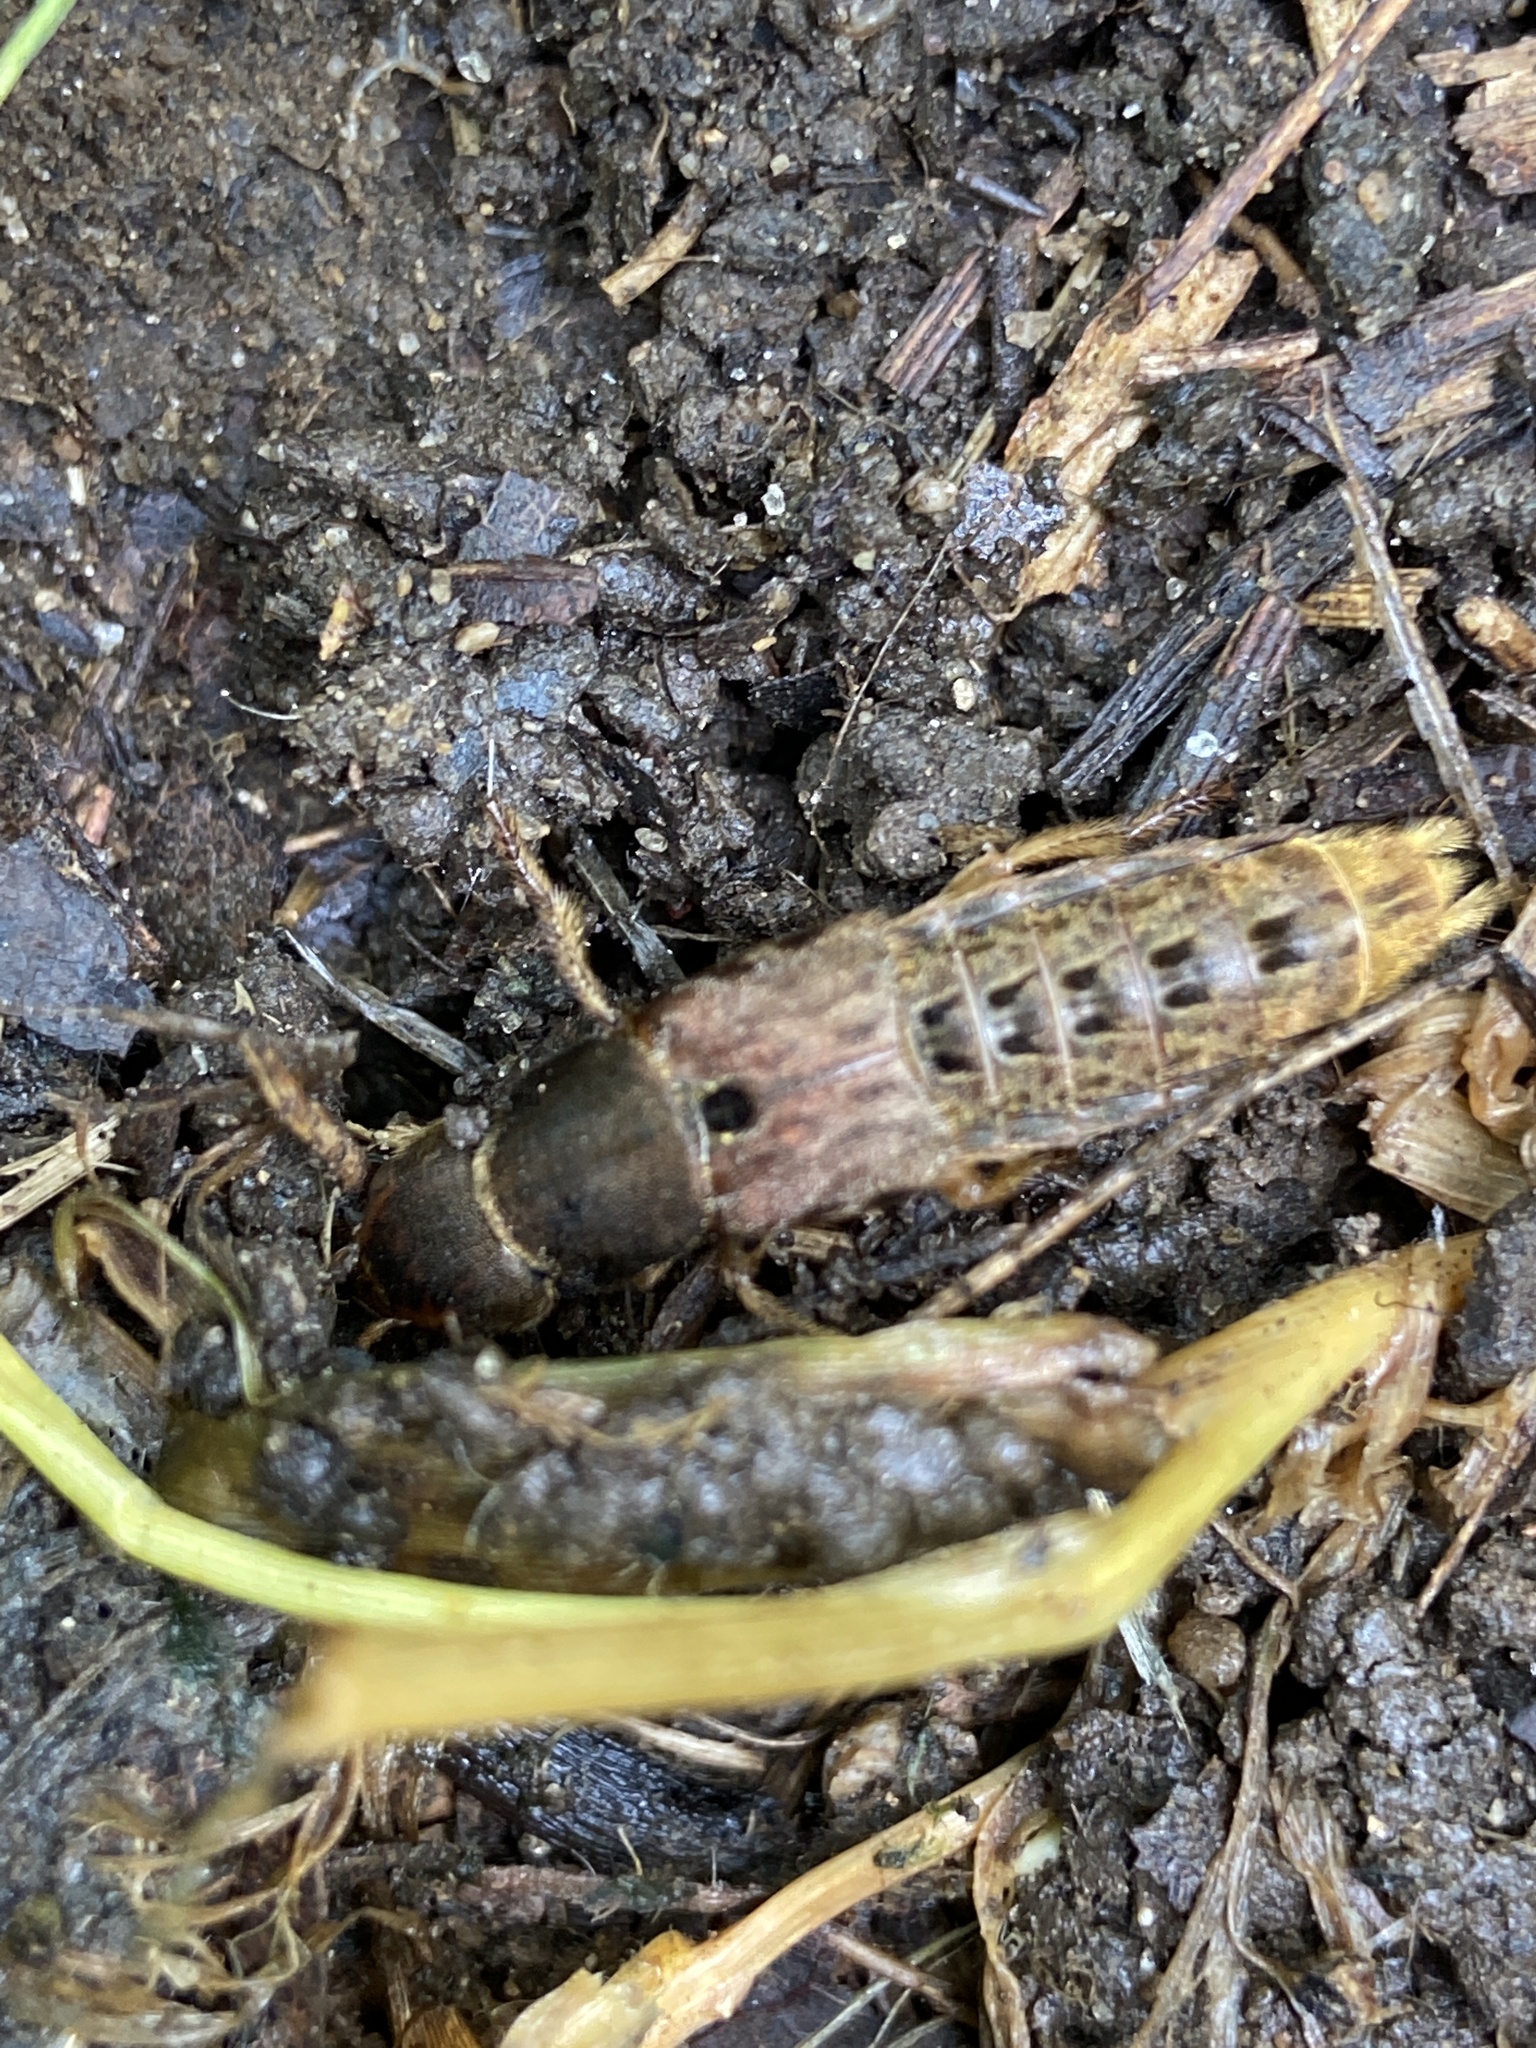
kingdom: Animalia
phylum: Arthropoda
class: Insecta
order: Coleoptera
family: Staphylinidae
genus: Platydracus
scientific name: Platydracus maculosus
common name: Brown rove beetle
